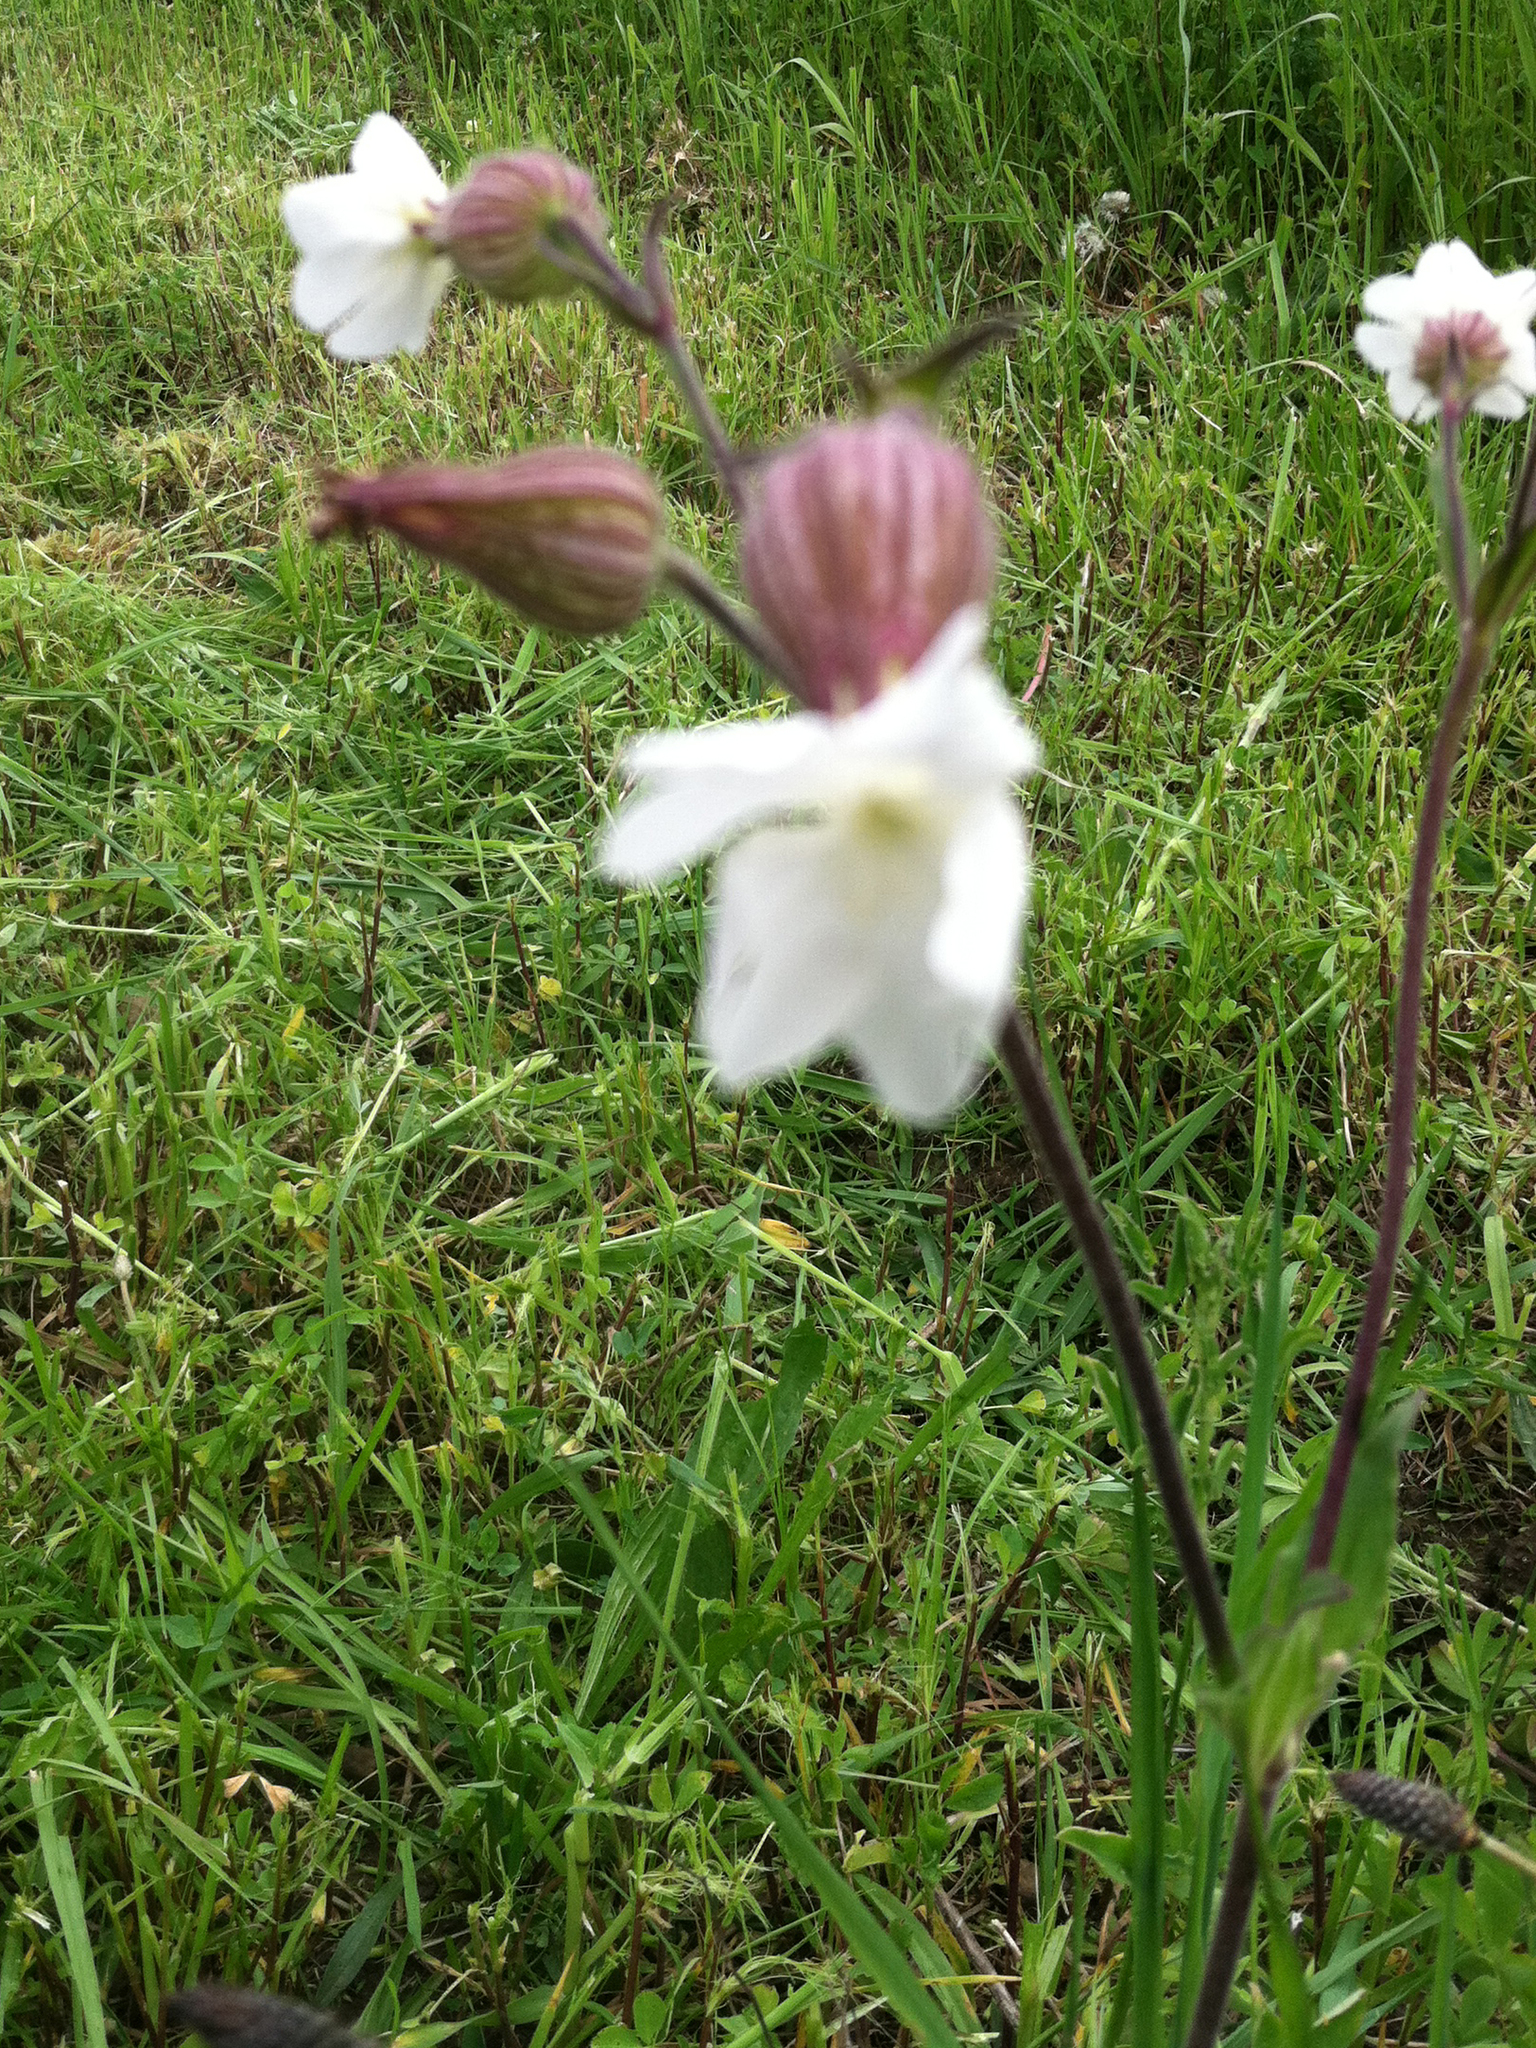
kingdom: Plantae
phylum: Tracheophyta
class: Magnoliopsida
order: Caryophyllales
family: Caryophyllaceae
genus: Silene
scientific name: Silene latifolia
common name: White campion
